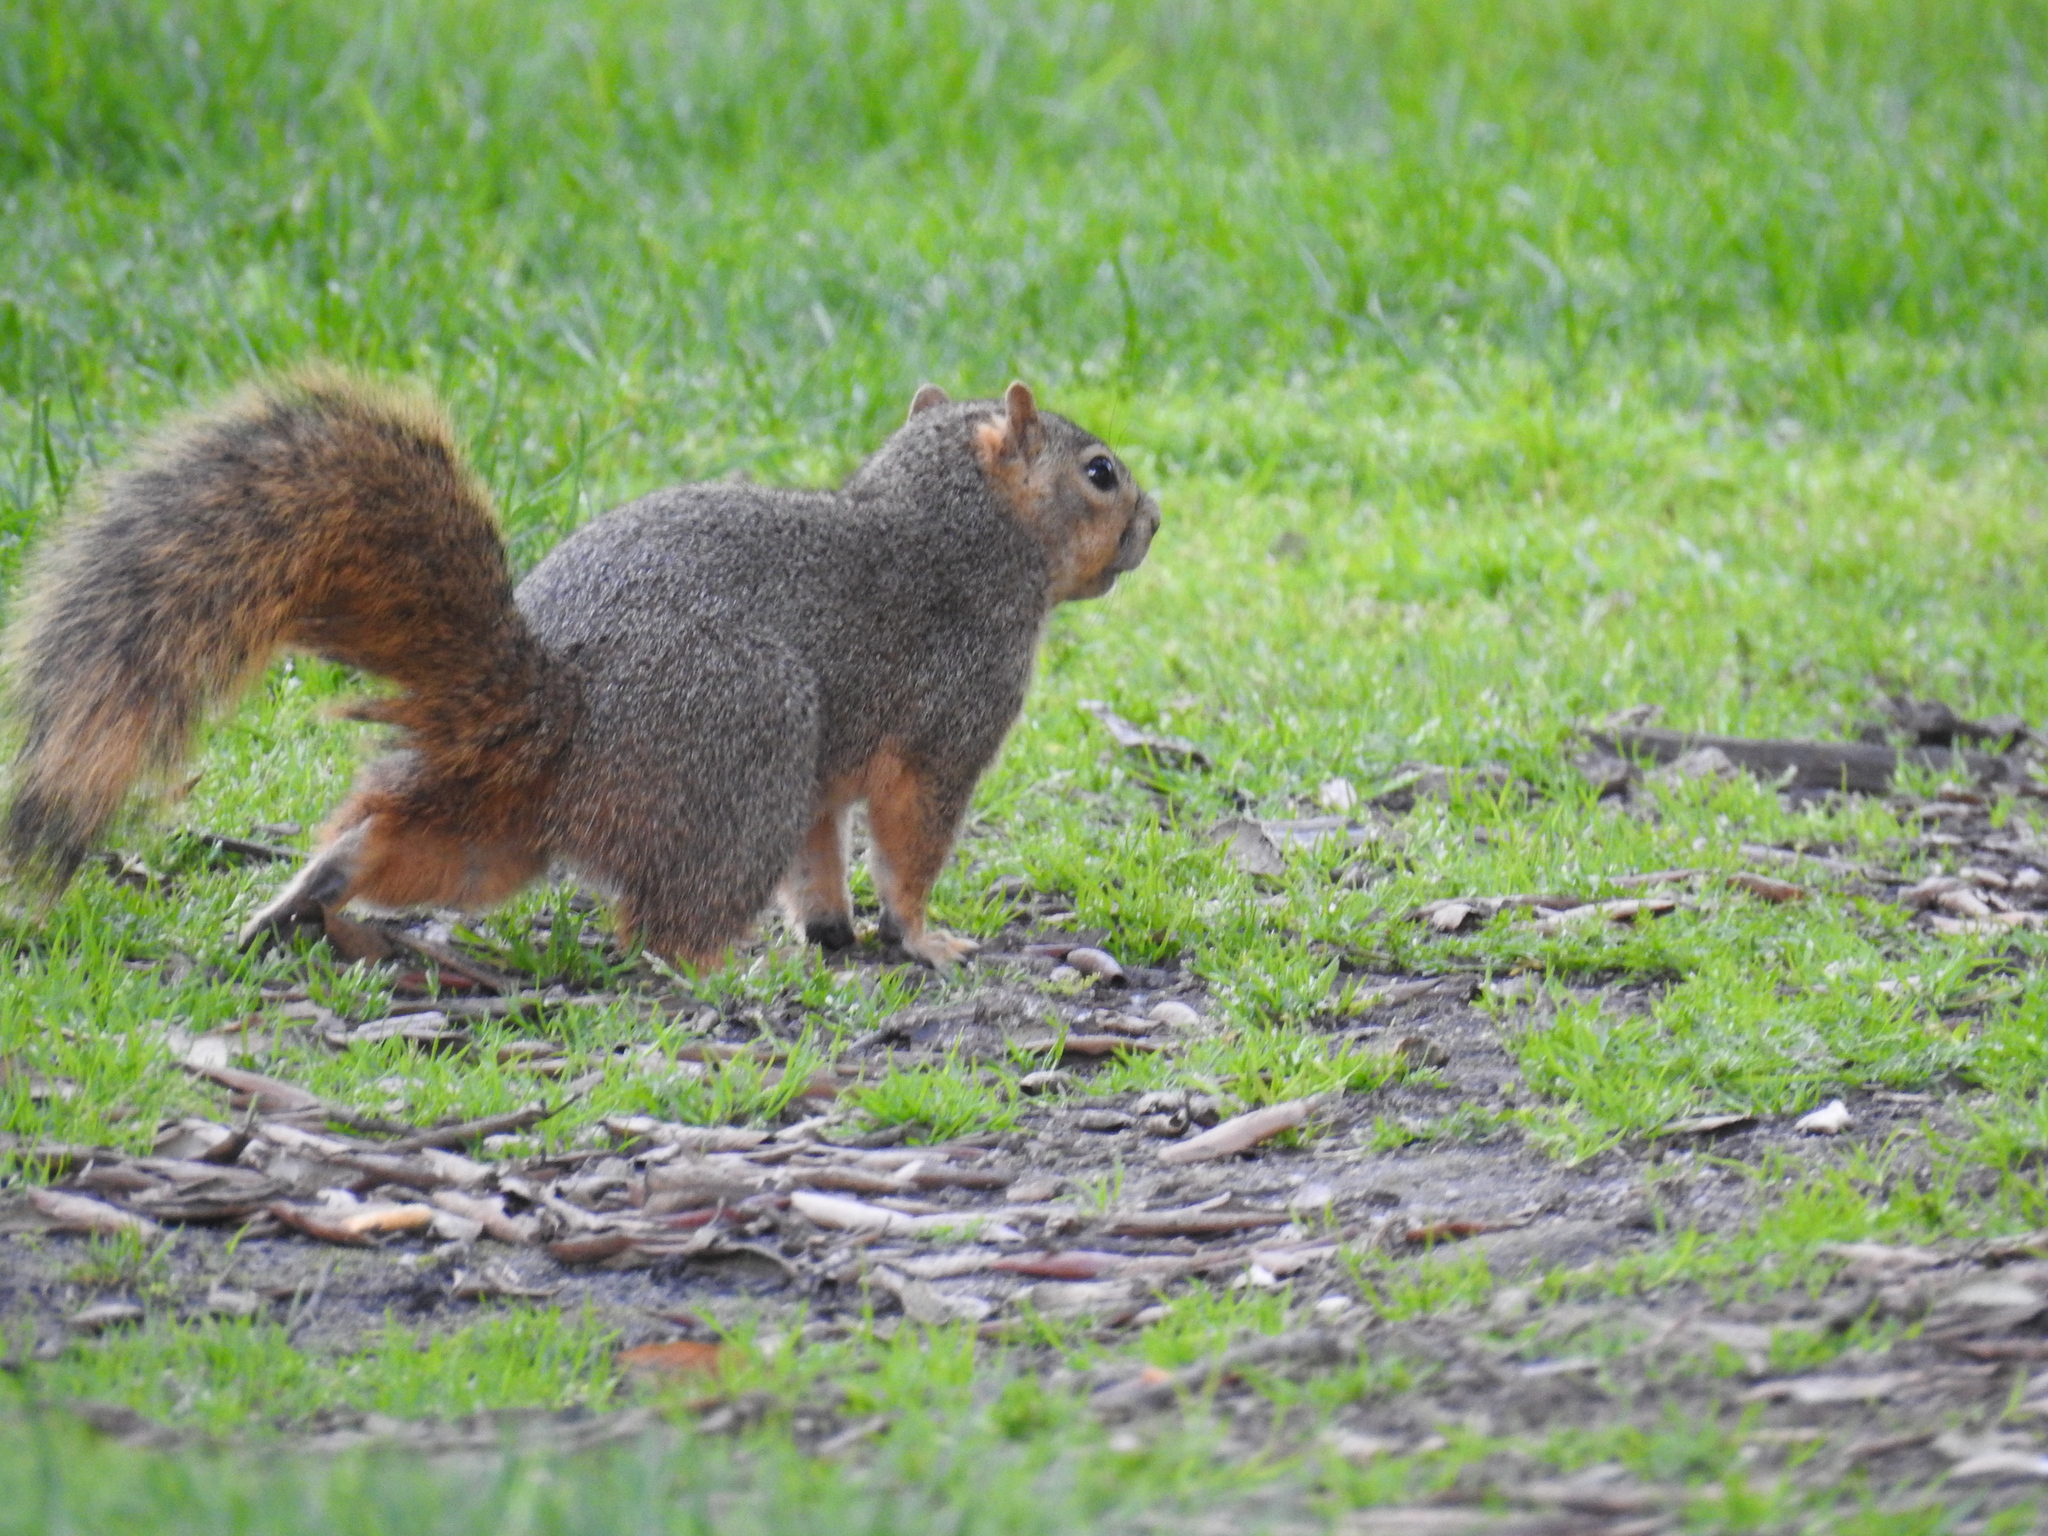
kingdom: Animalia
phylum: Chordata
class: Mammalia
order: Rodentia
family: Sciuridae
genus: Sciurus
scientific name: Sciurus niger
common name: Fox squirrel
